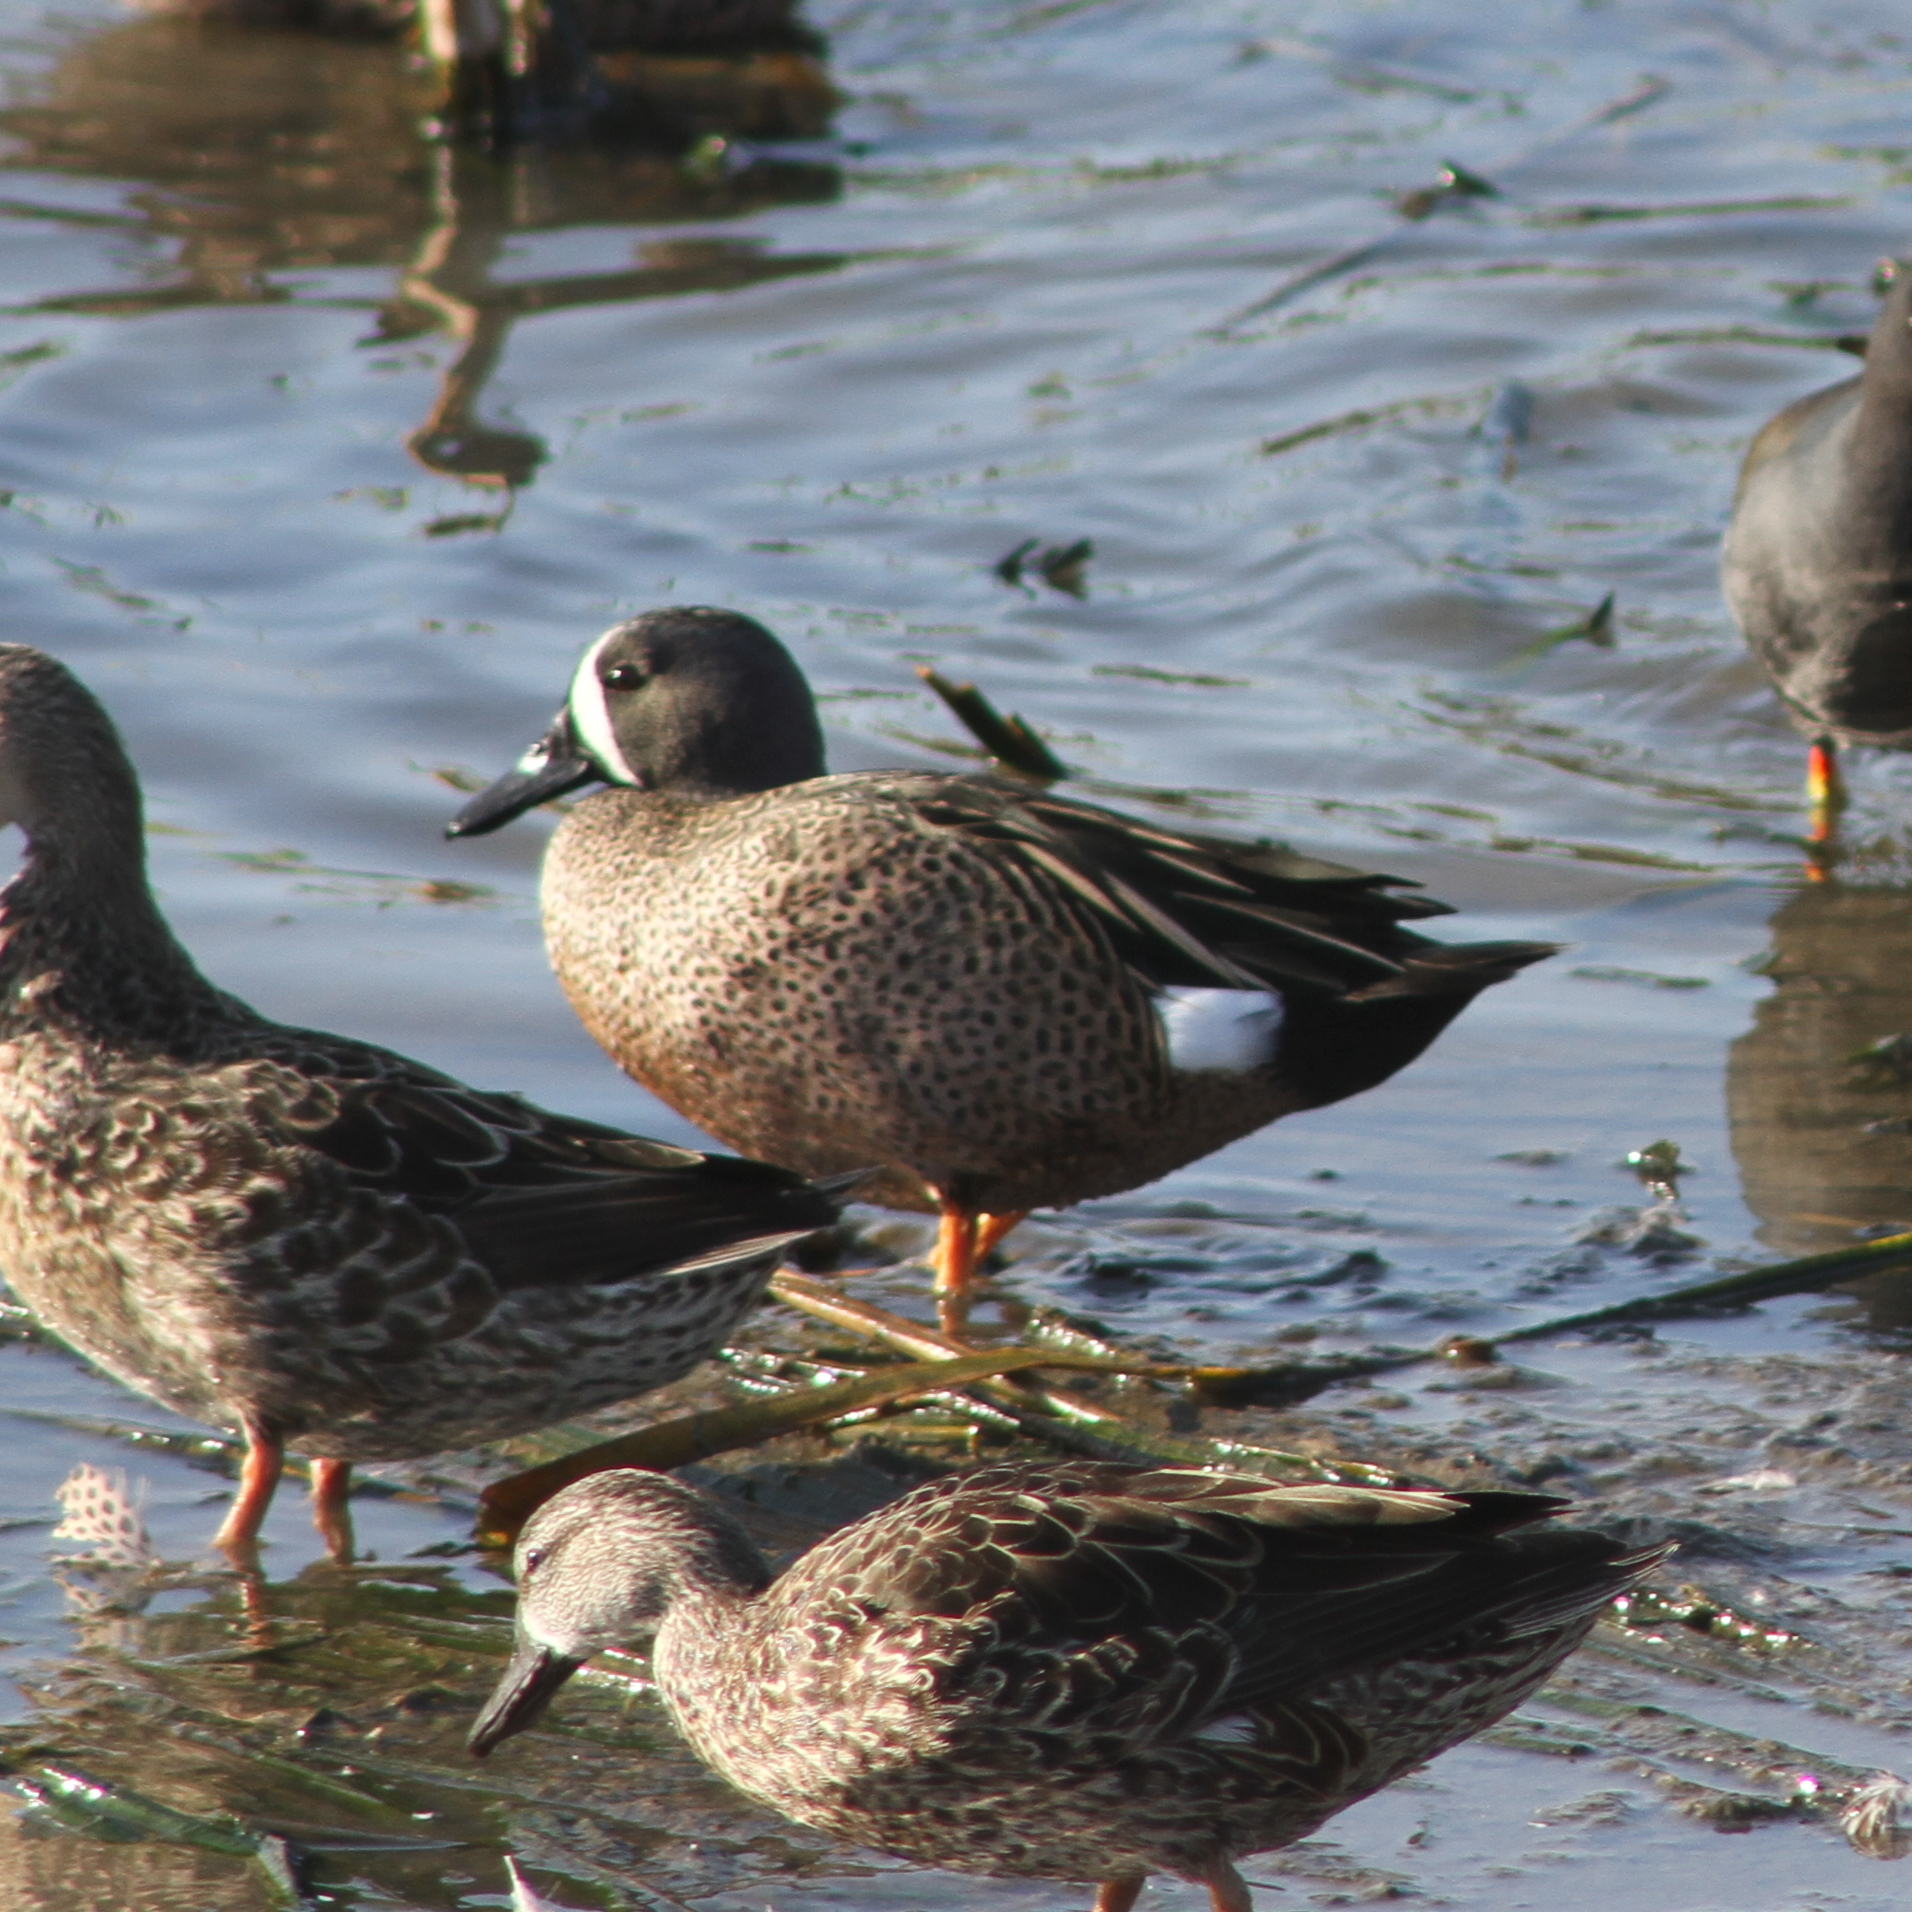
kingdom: Animalia
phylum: Chordata
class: Aves
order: Anseriformes
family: Anatidae
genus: Spatula
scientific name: Spatula discors
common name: Blue-winged teal
